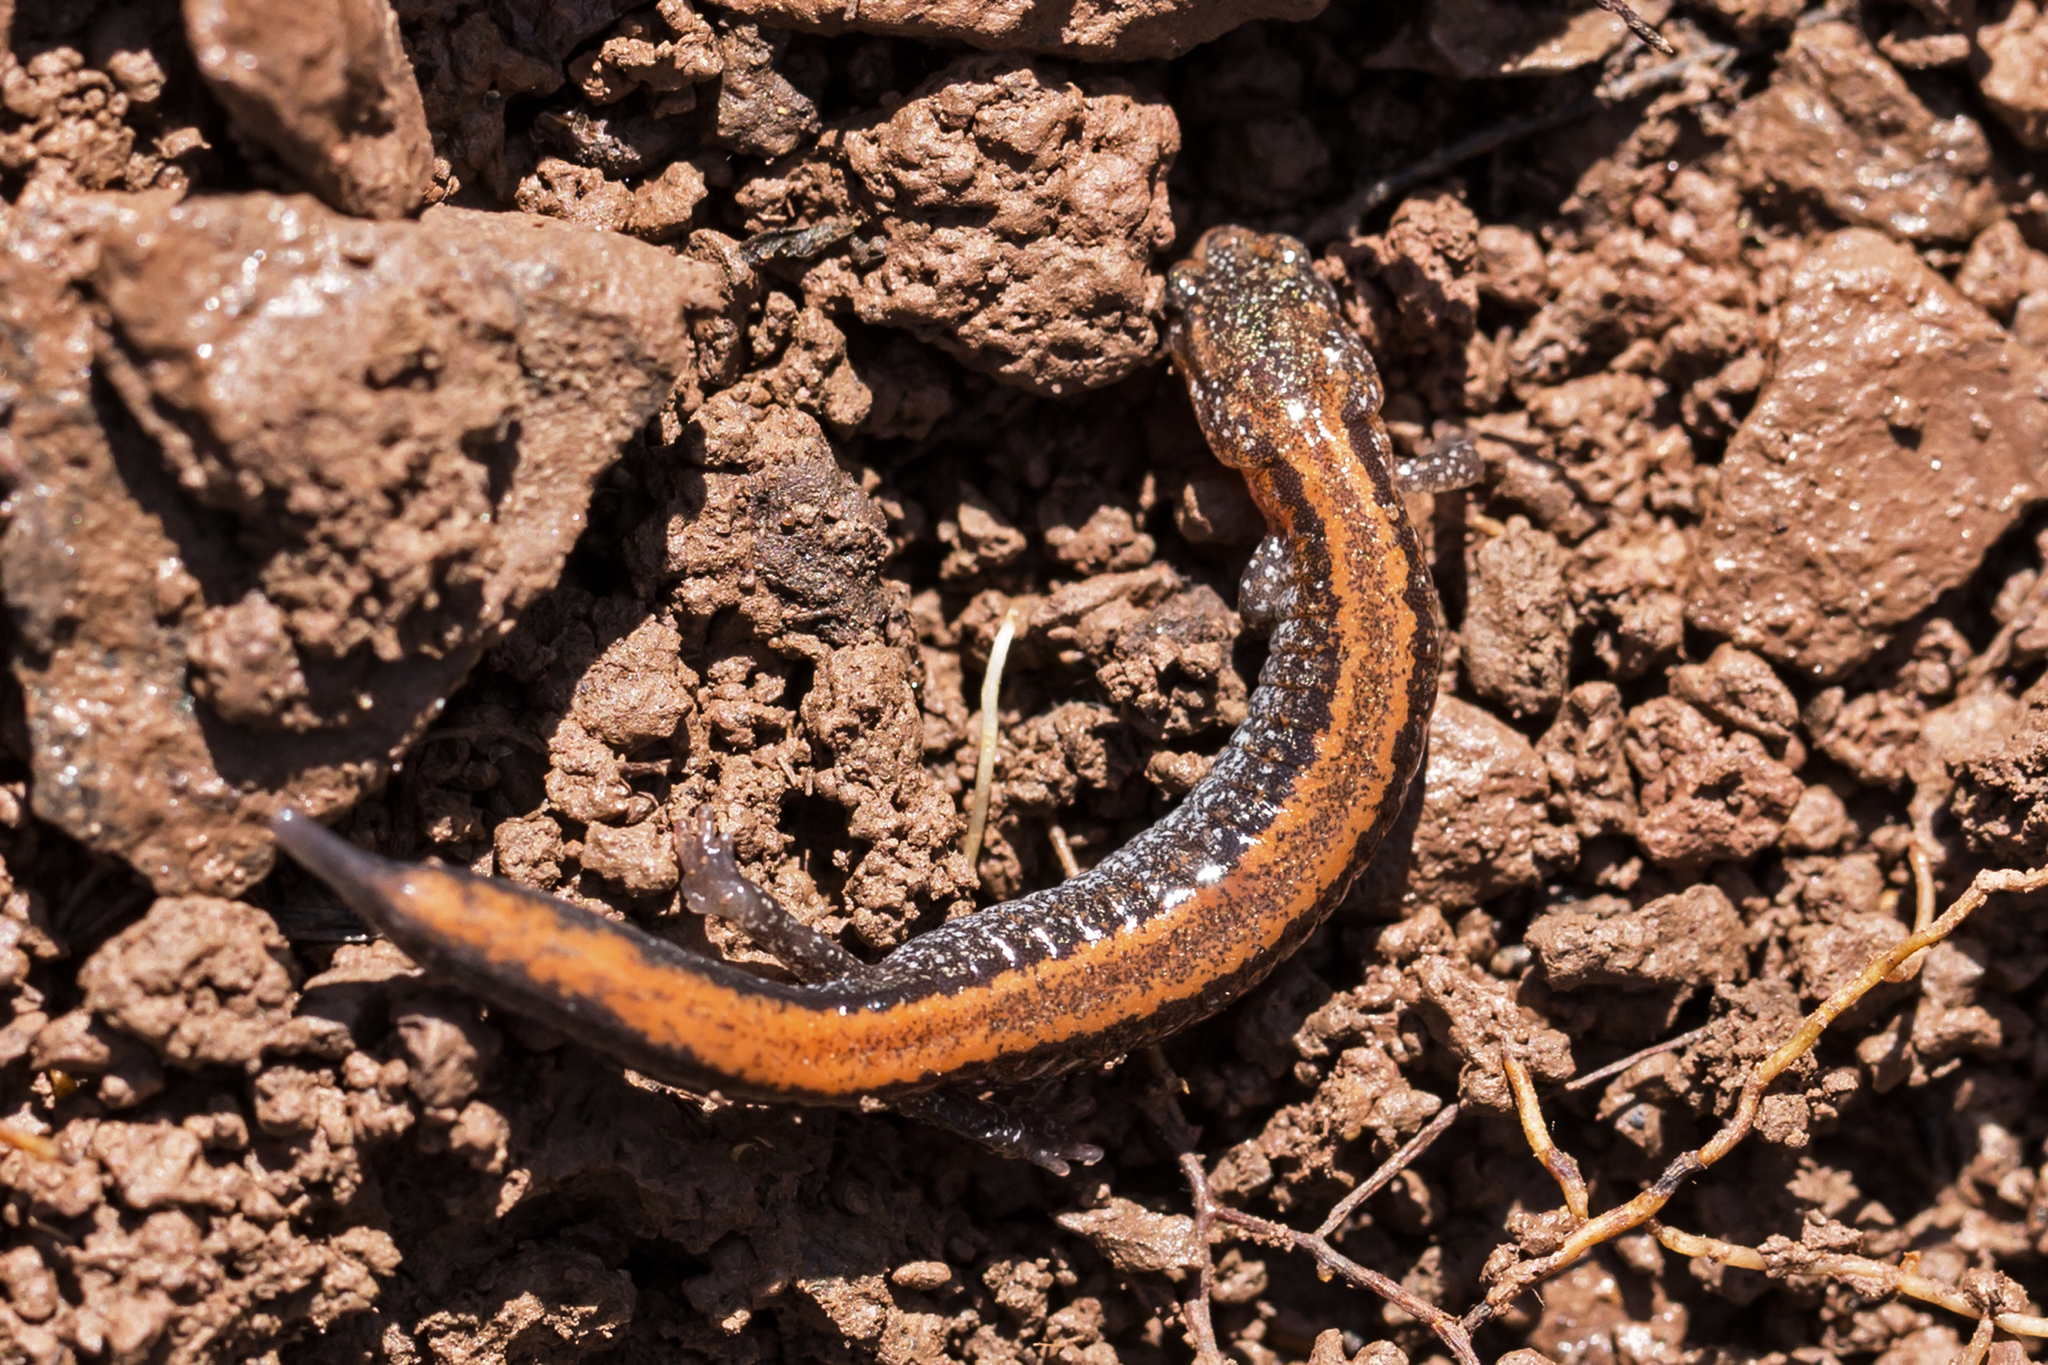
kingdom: Animalia
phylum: Chordata
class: Amphibia
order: Caudata
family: Plethodontidae
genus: Plethodon
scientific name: Plethodon cinereus
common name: Redback salamander
